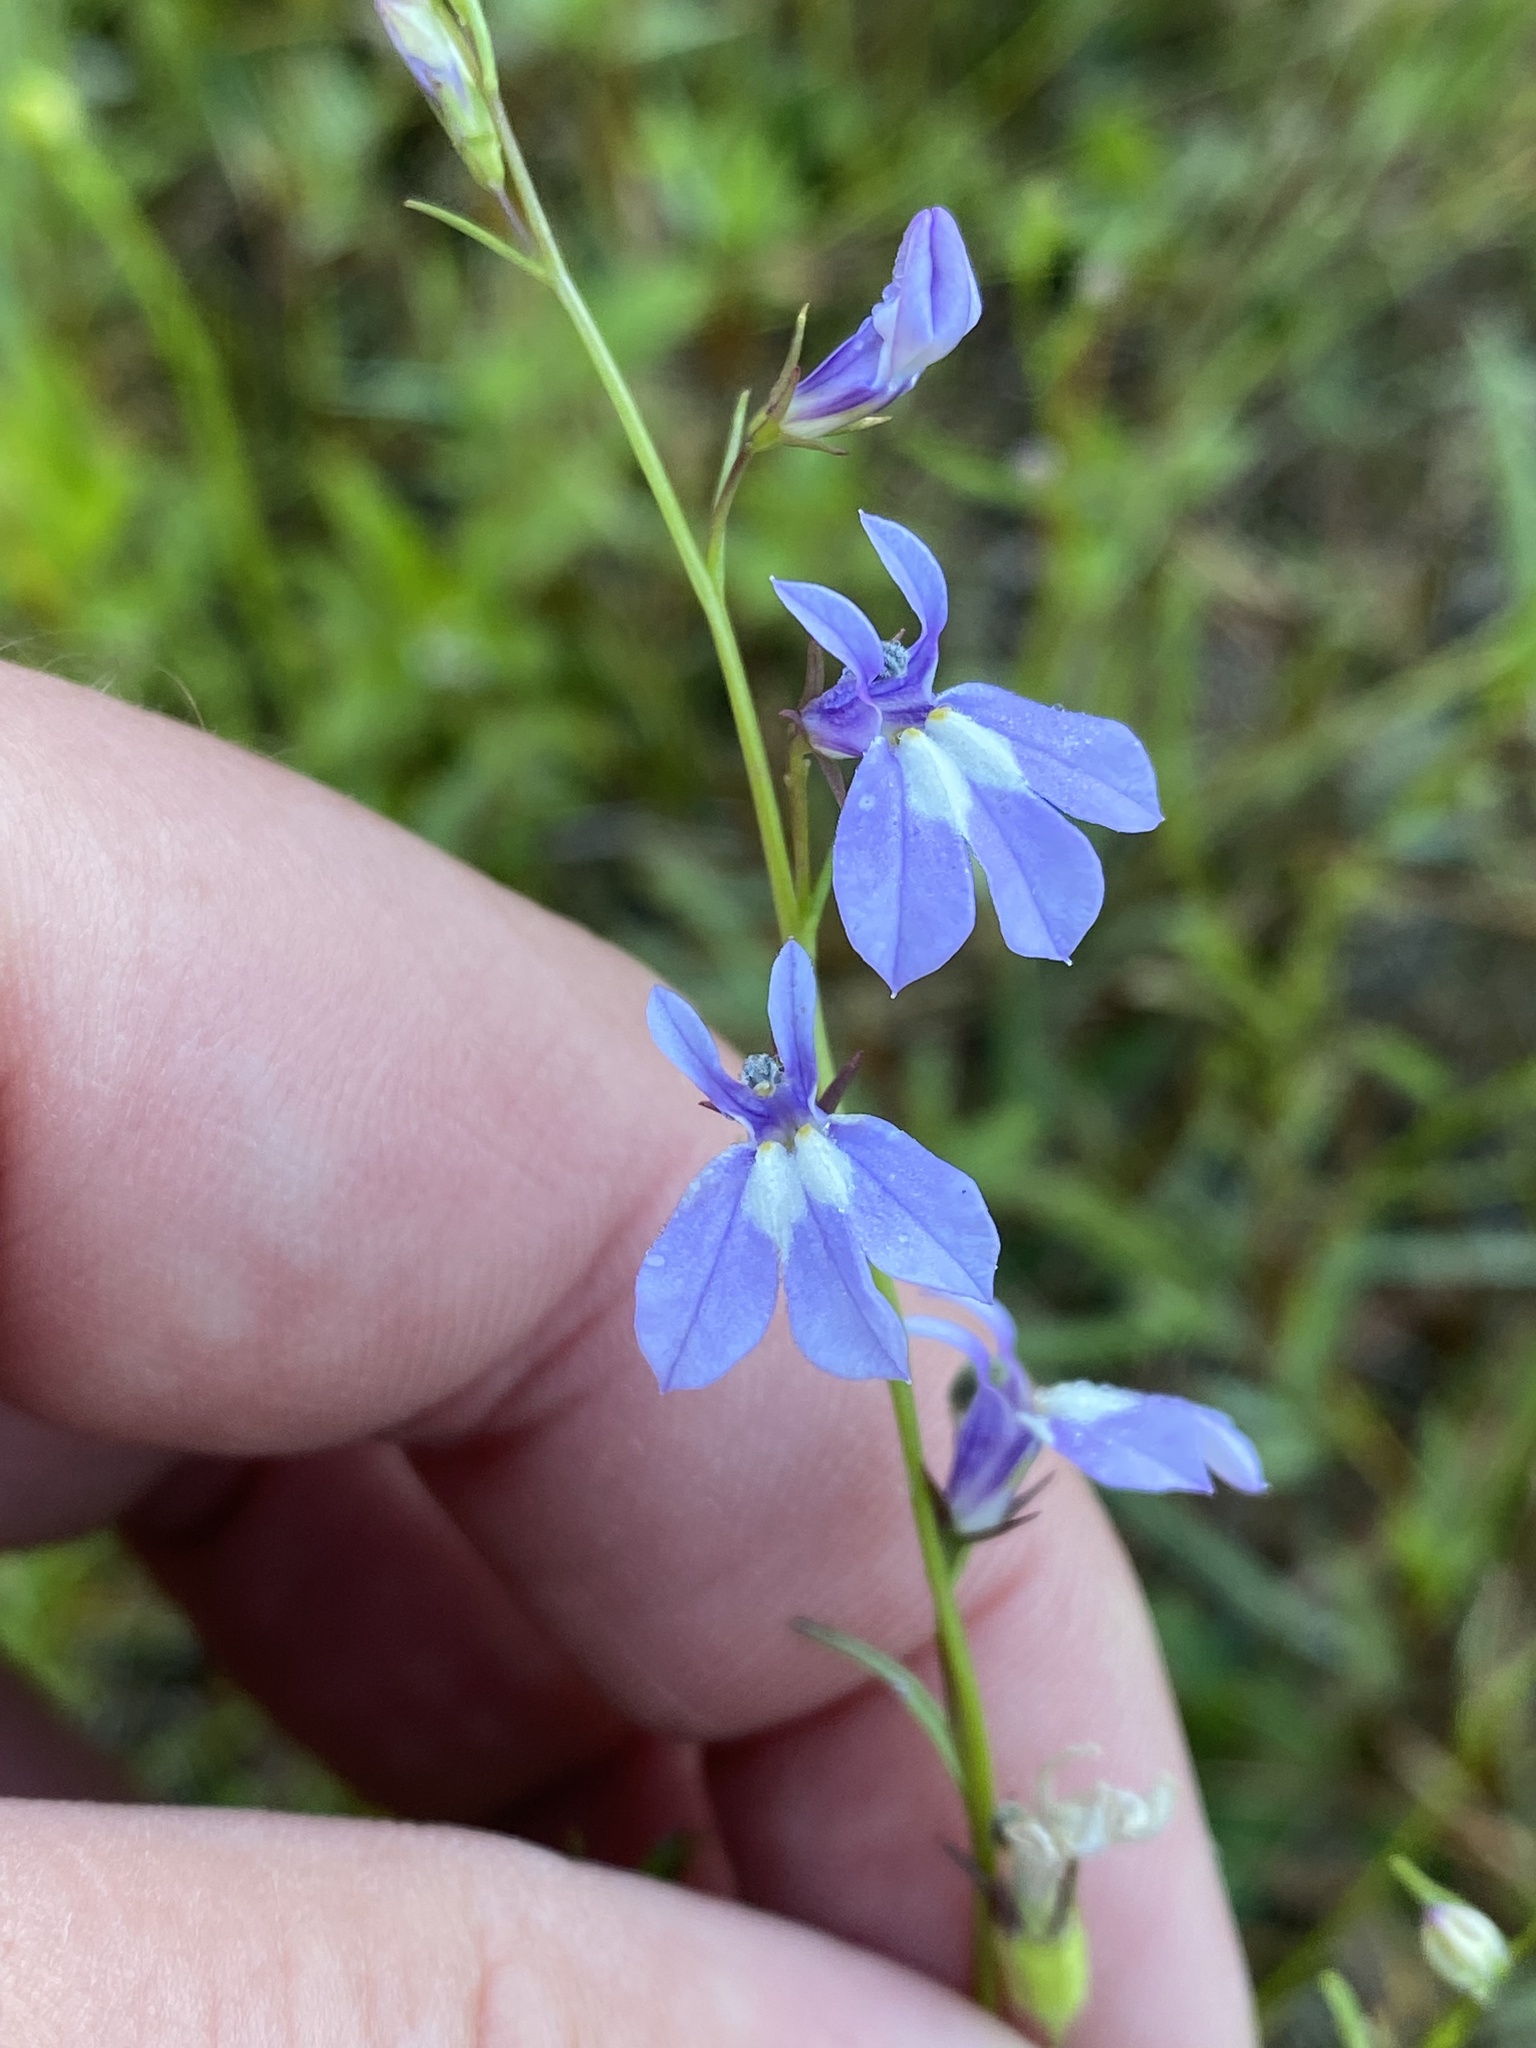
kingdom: Plantae
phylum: Tracheophyta
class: Magnoliopsida
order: Asterales
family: Campanulaceae
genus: Lobelia
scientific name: Lobelia kalmii
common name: Kalm's lobelia
